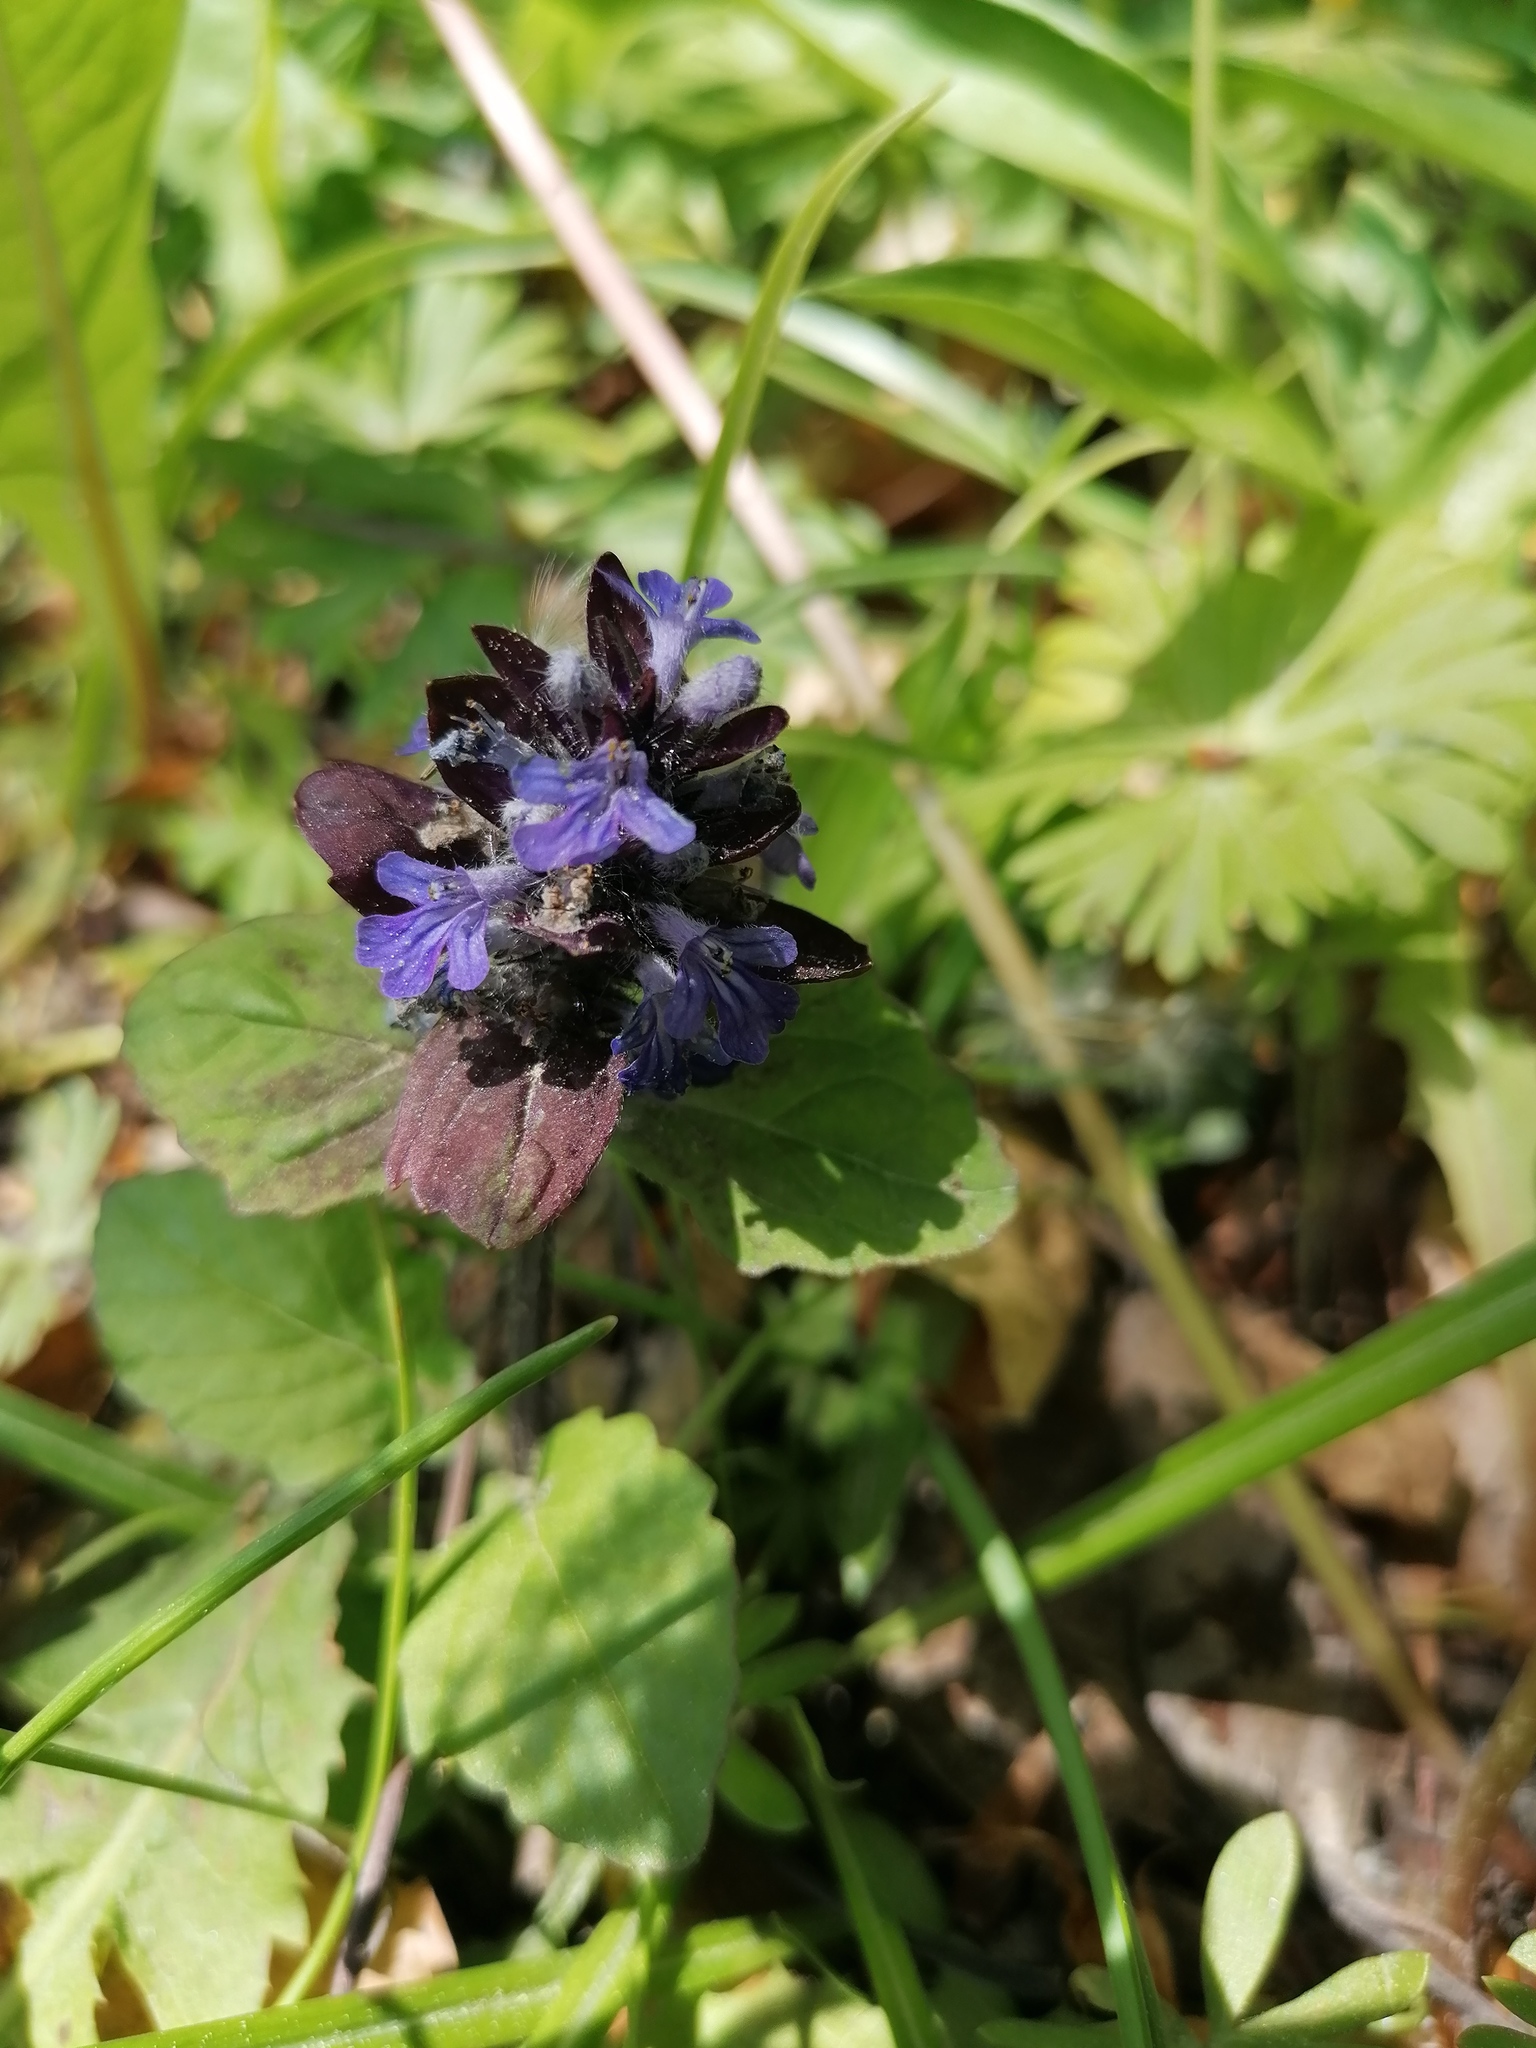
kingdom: Plantae
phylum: Tracheophyta
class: Magnoliopsida
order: Lamiales
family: Lamiaceae
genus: Ajuga
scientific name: Ajuga reptans
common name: Bugle
